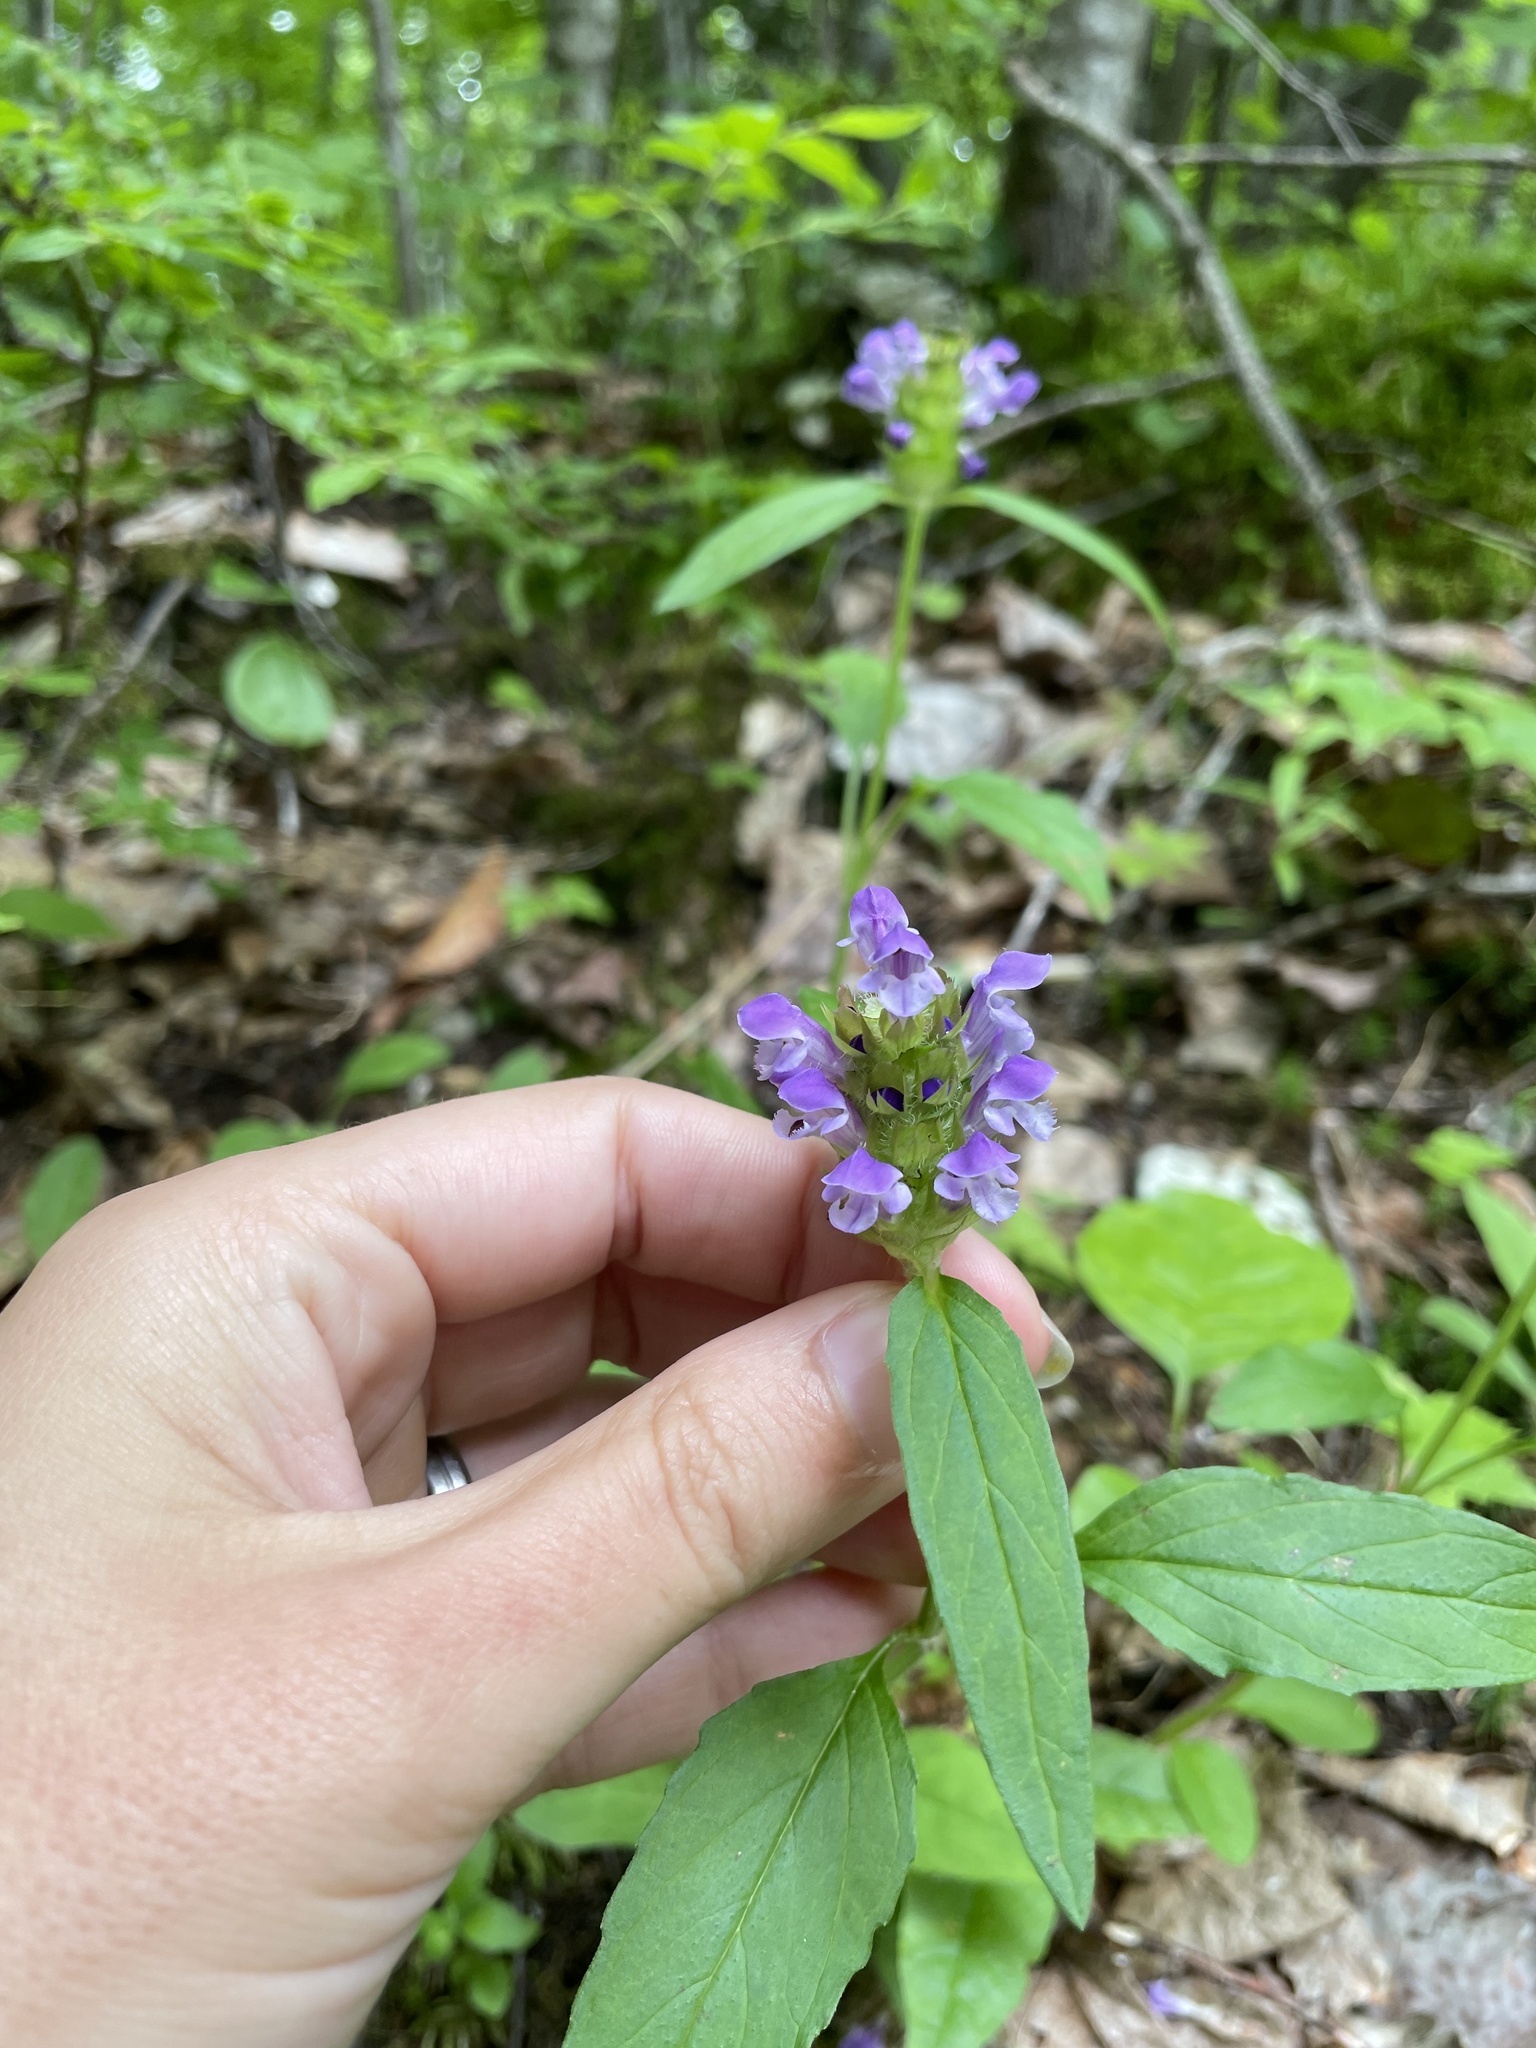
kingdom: Plantae
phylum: Tracheophyta
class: Magnoliopsida
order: Lamiales
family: Lamiaceae
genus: Prunella
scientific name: Prunella vulgaris
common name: Heal-all
